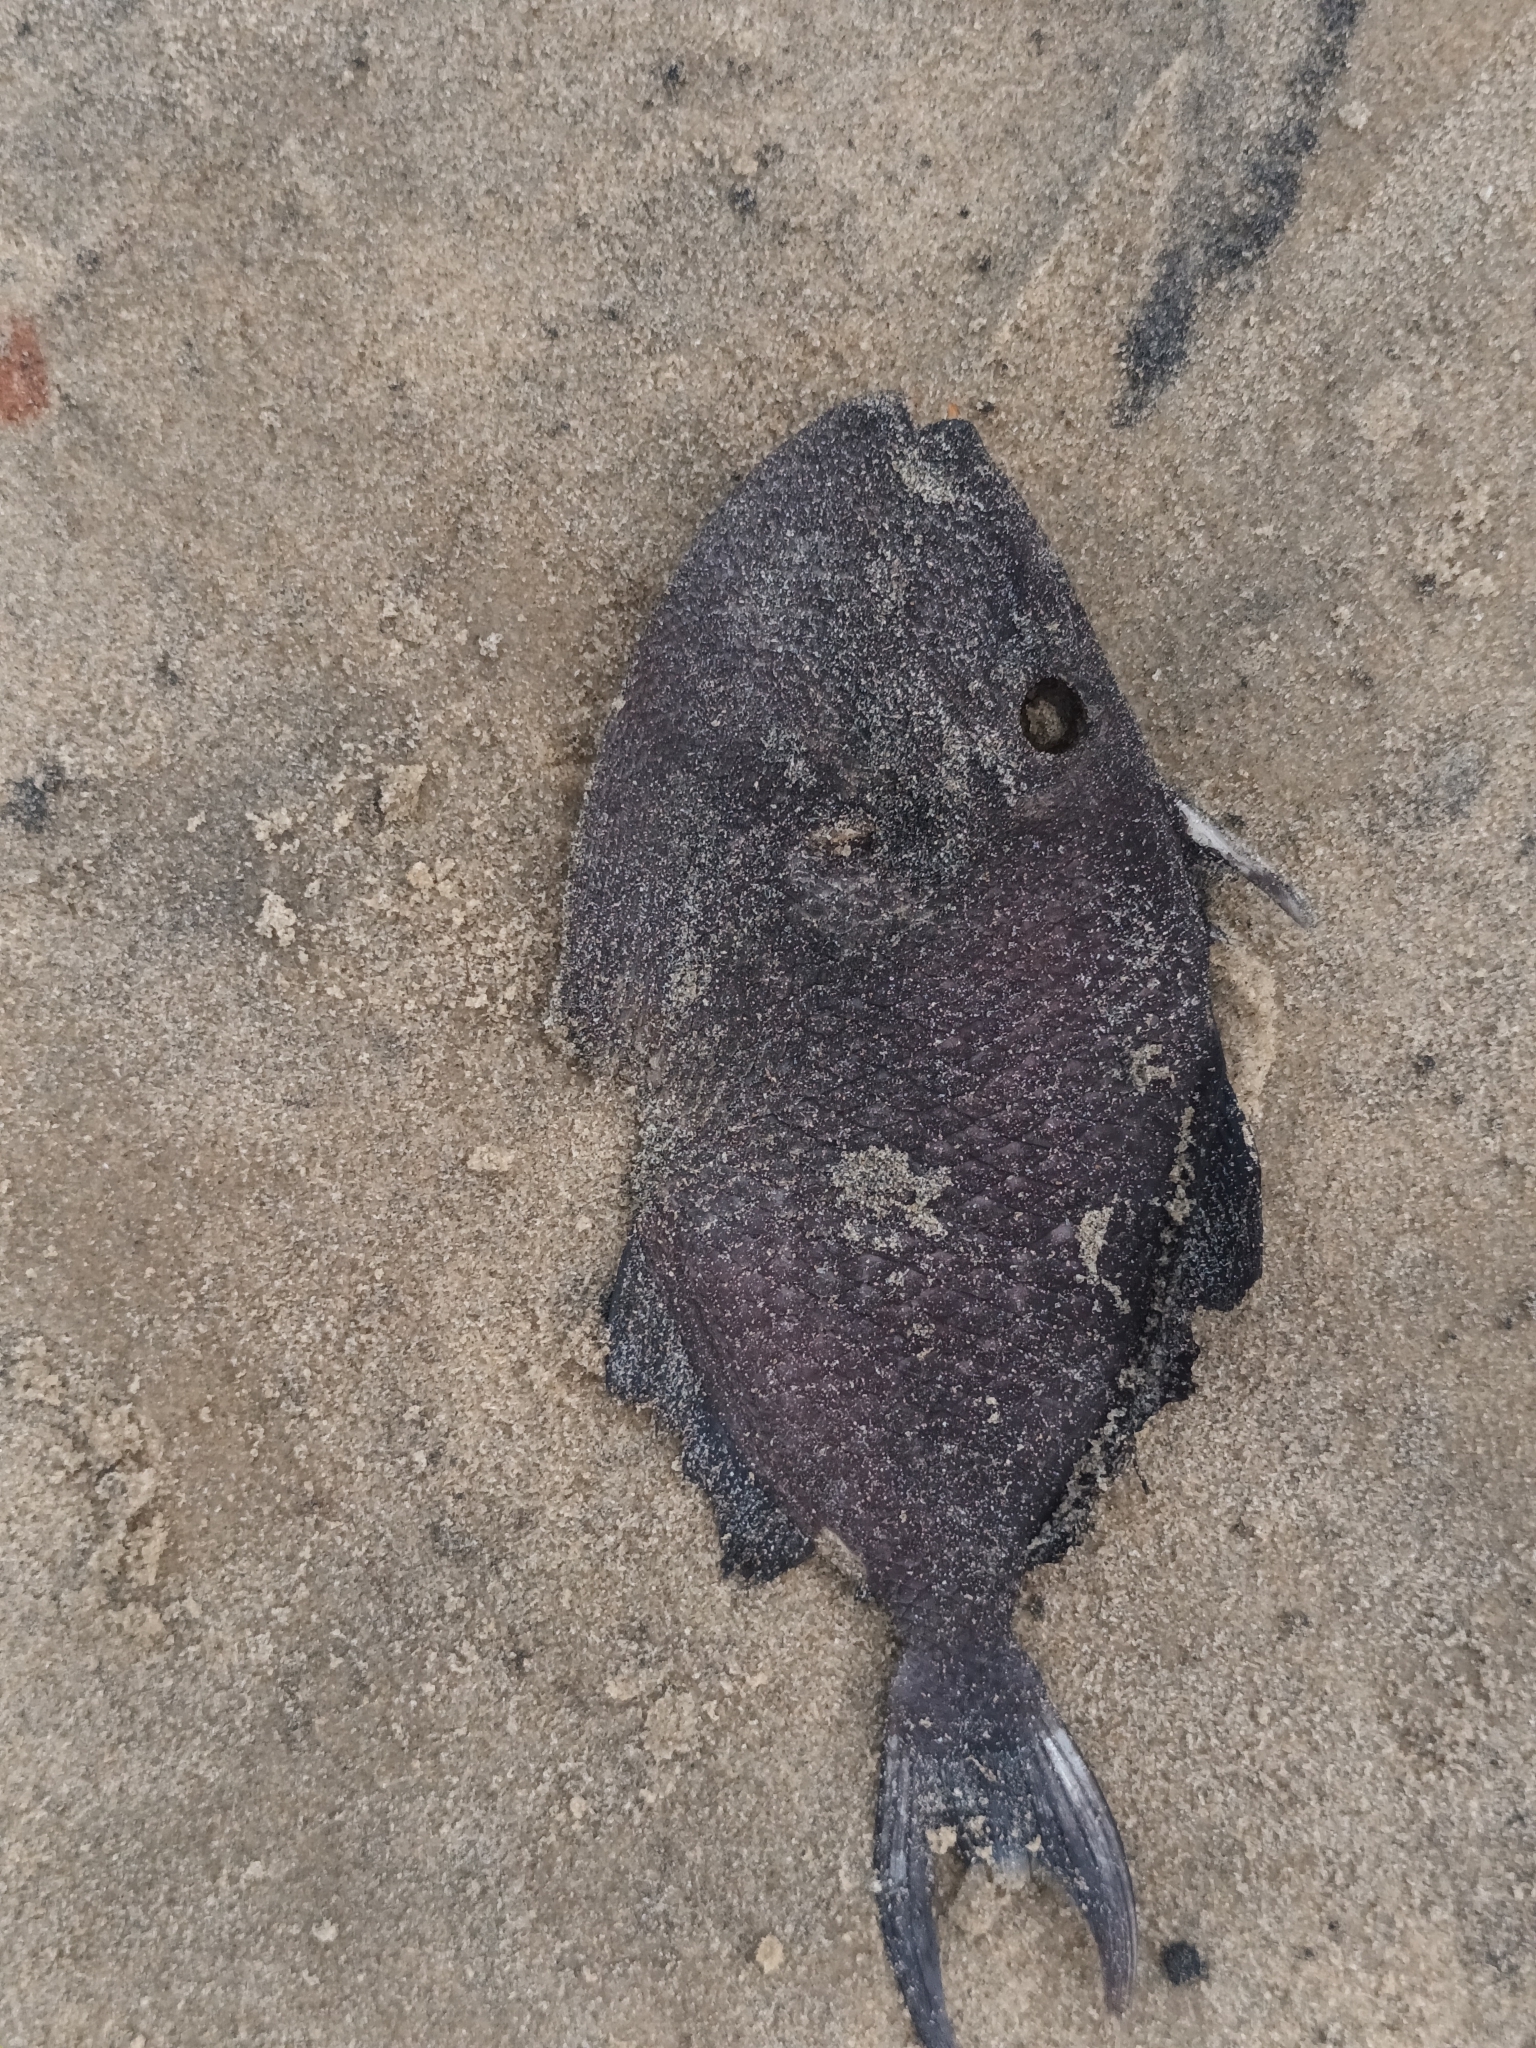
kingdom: Animalia
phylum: Chordata
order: Tetraodontiformes
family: Balistidae
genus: Odonus
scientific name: Odonus niger
